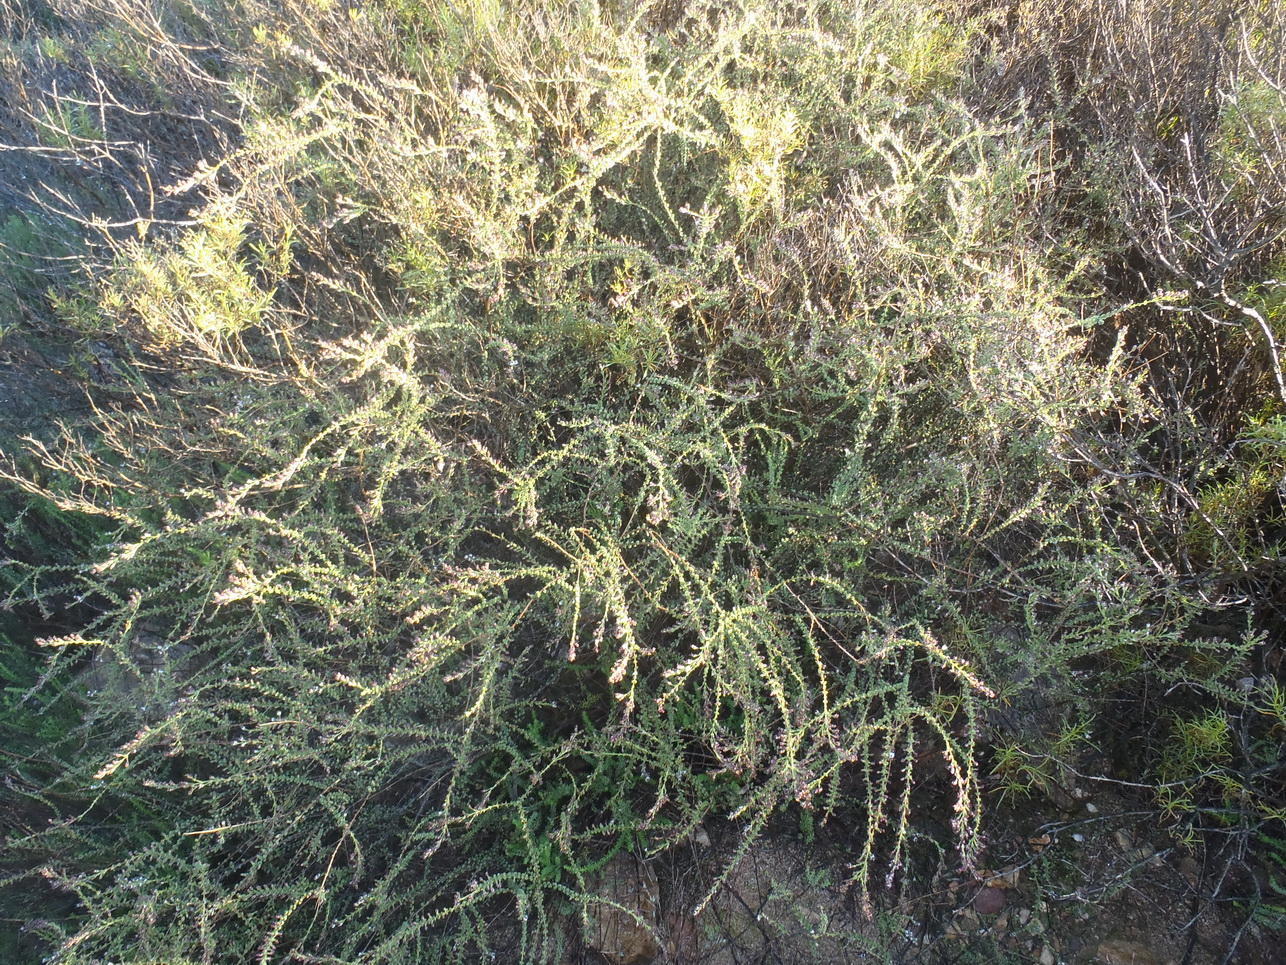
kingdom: Plantae
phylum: Tracheophyta
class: Magnoliopsida
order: Asterales
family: Asteraceae
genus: Eriocephalus
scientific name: Eriocephalus ericoides
